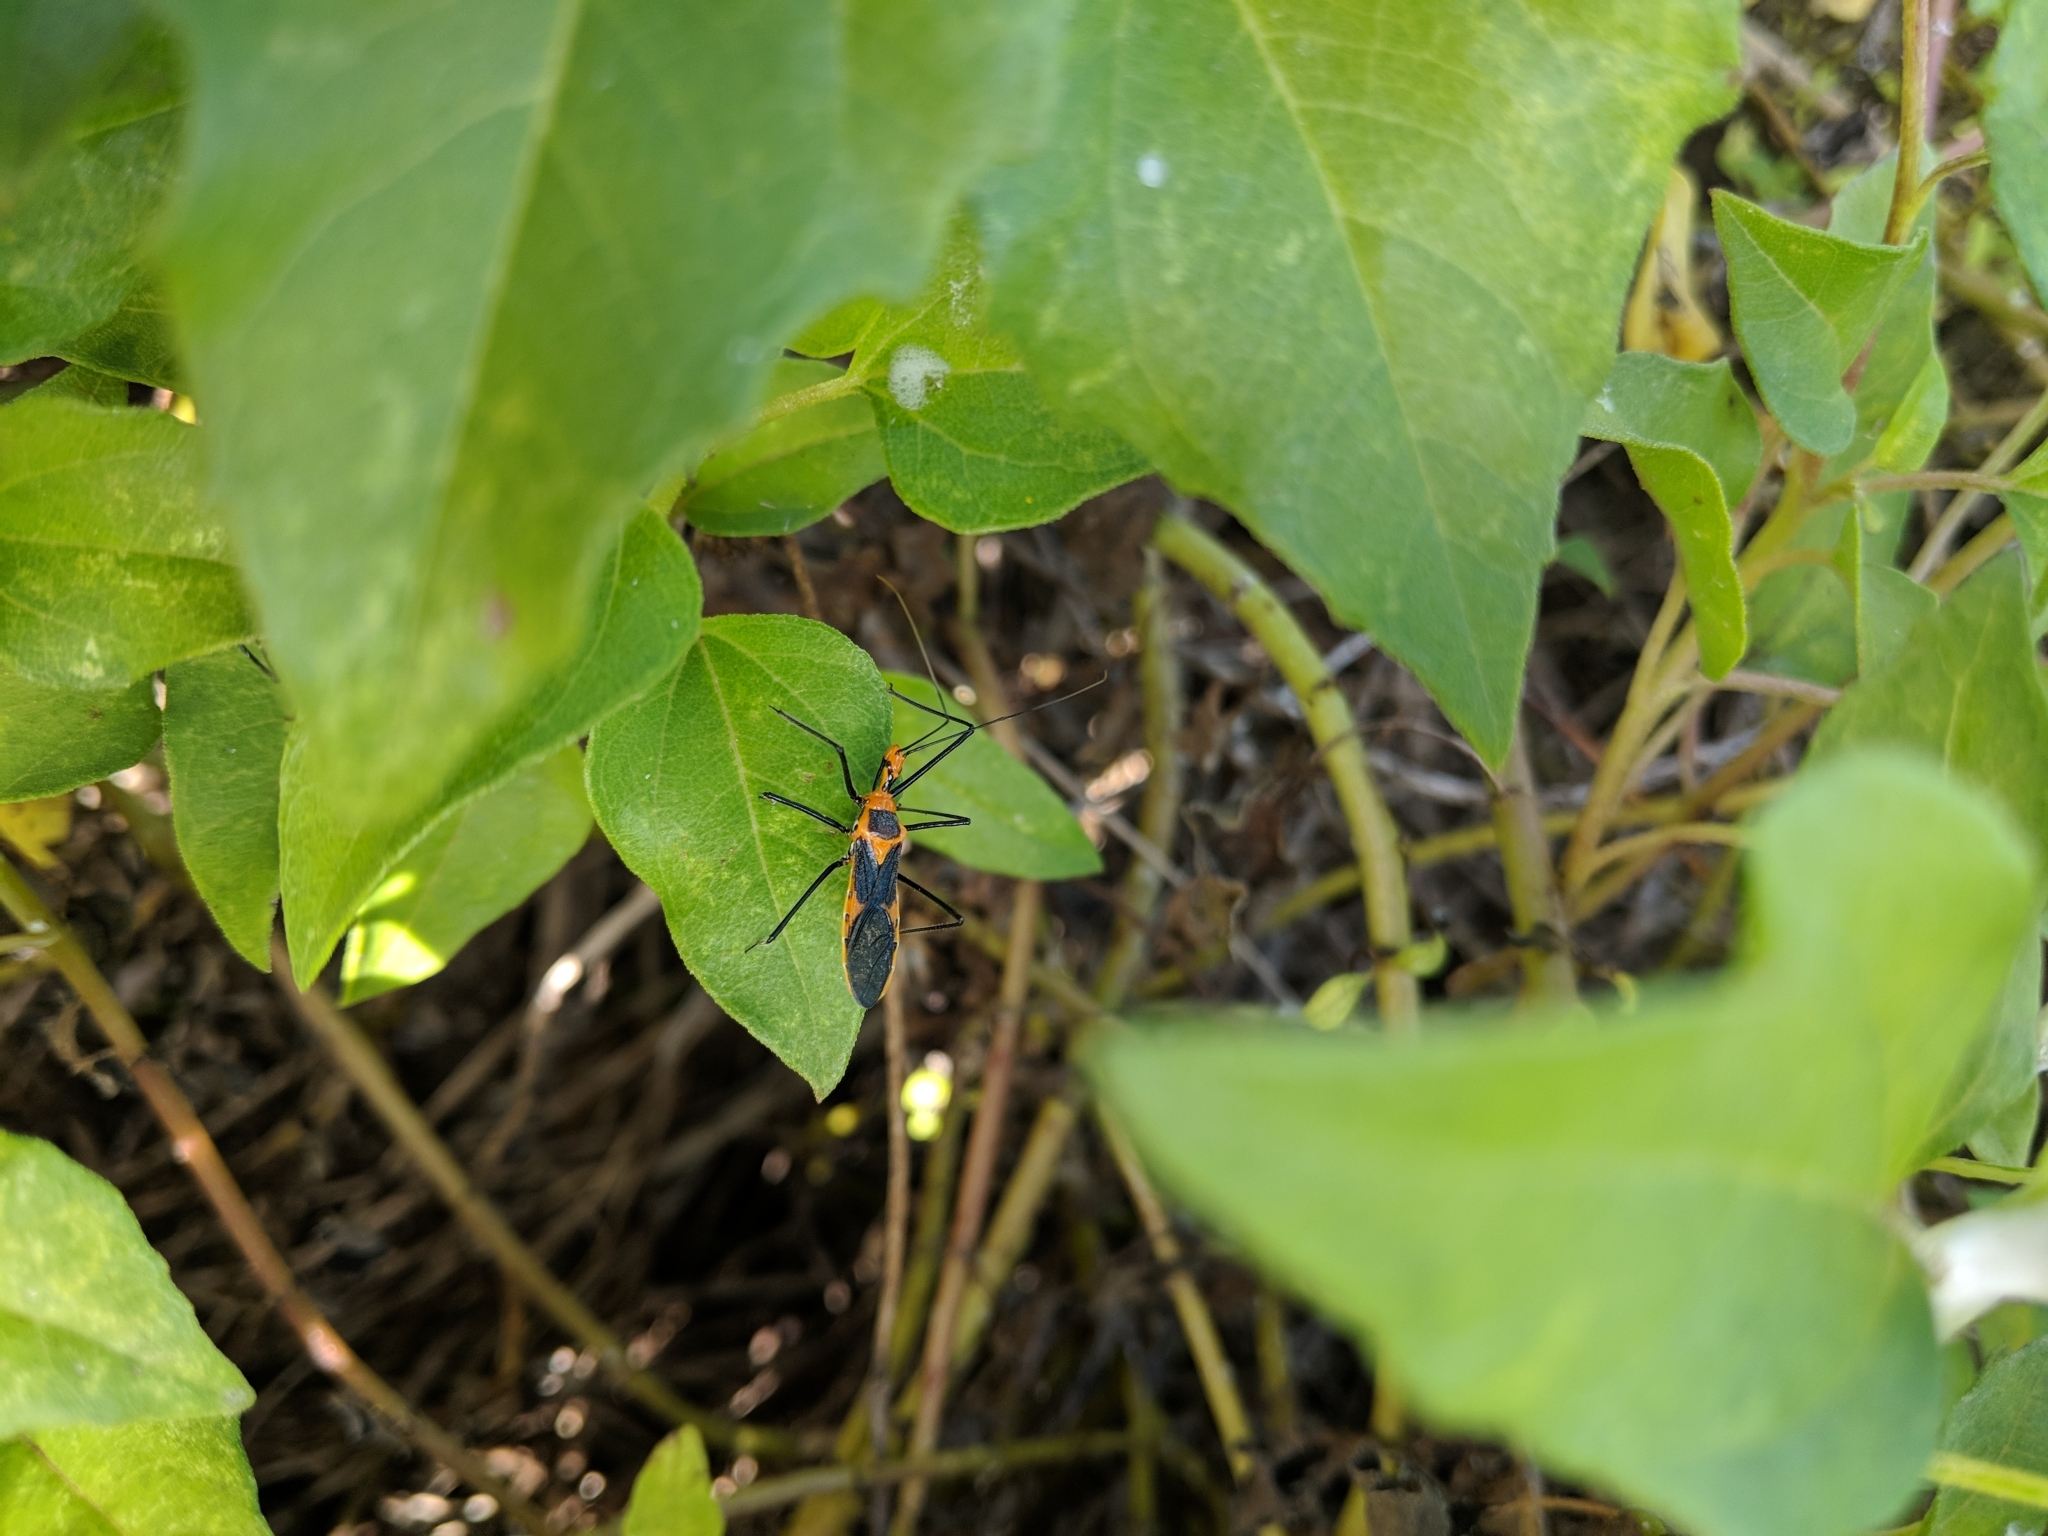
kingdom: Animalia
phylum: Arthropoda
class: Insecta
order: Hemiptera
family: Reduviidae
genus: Zelus
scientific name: Zelus longipes
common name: Milkweed assassin bug
